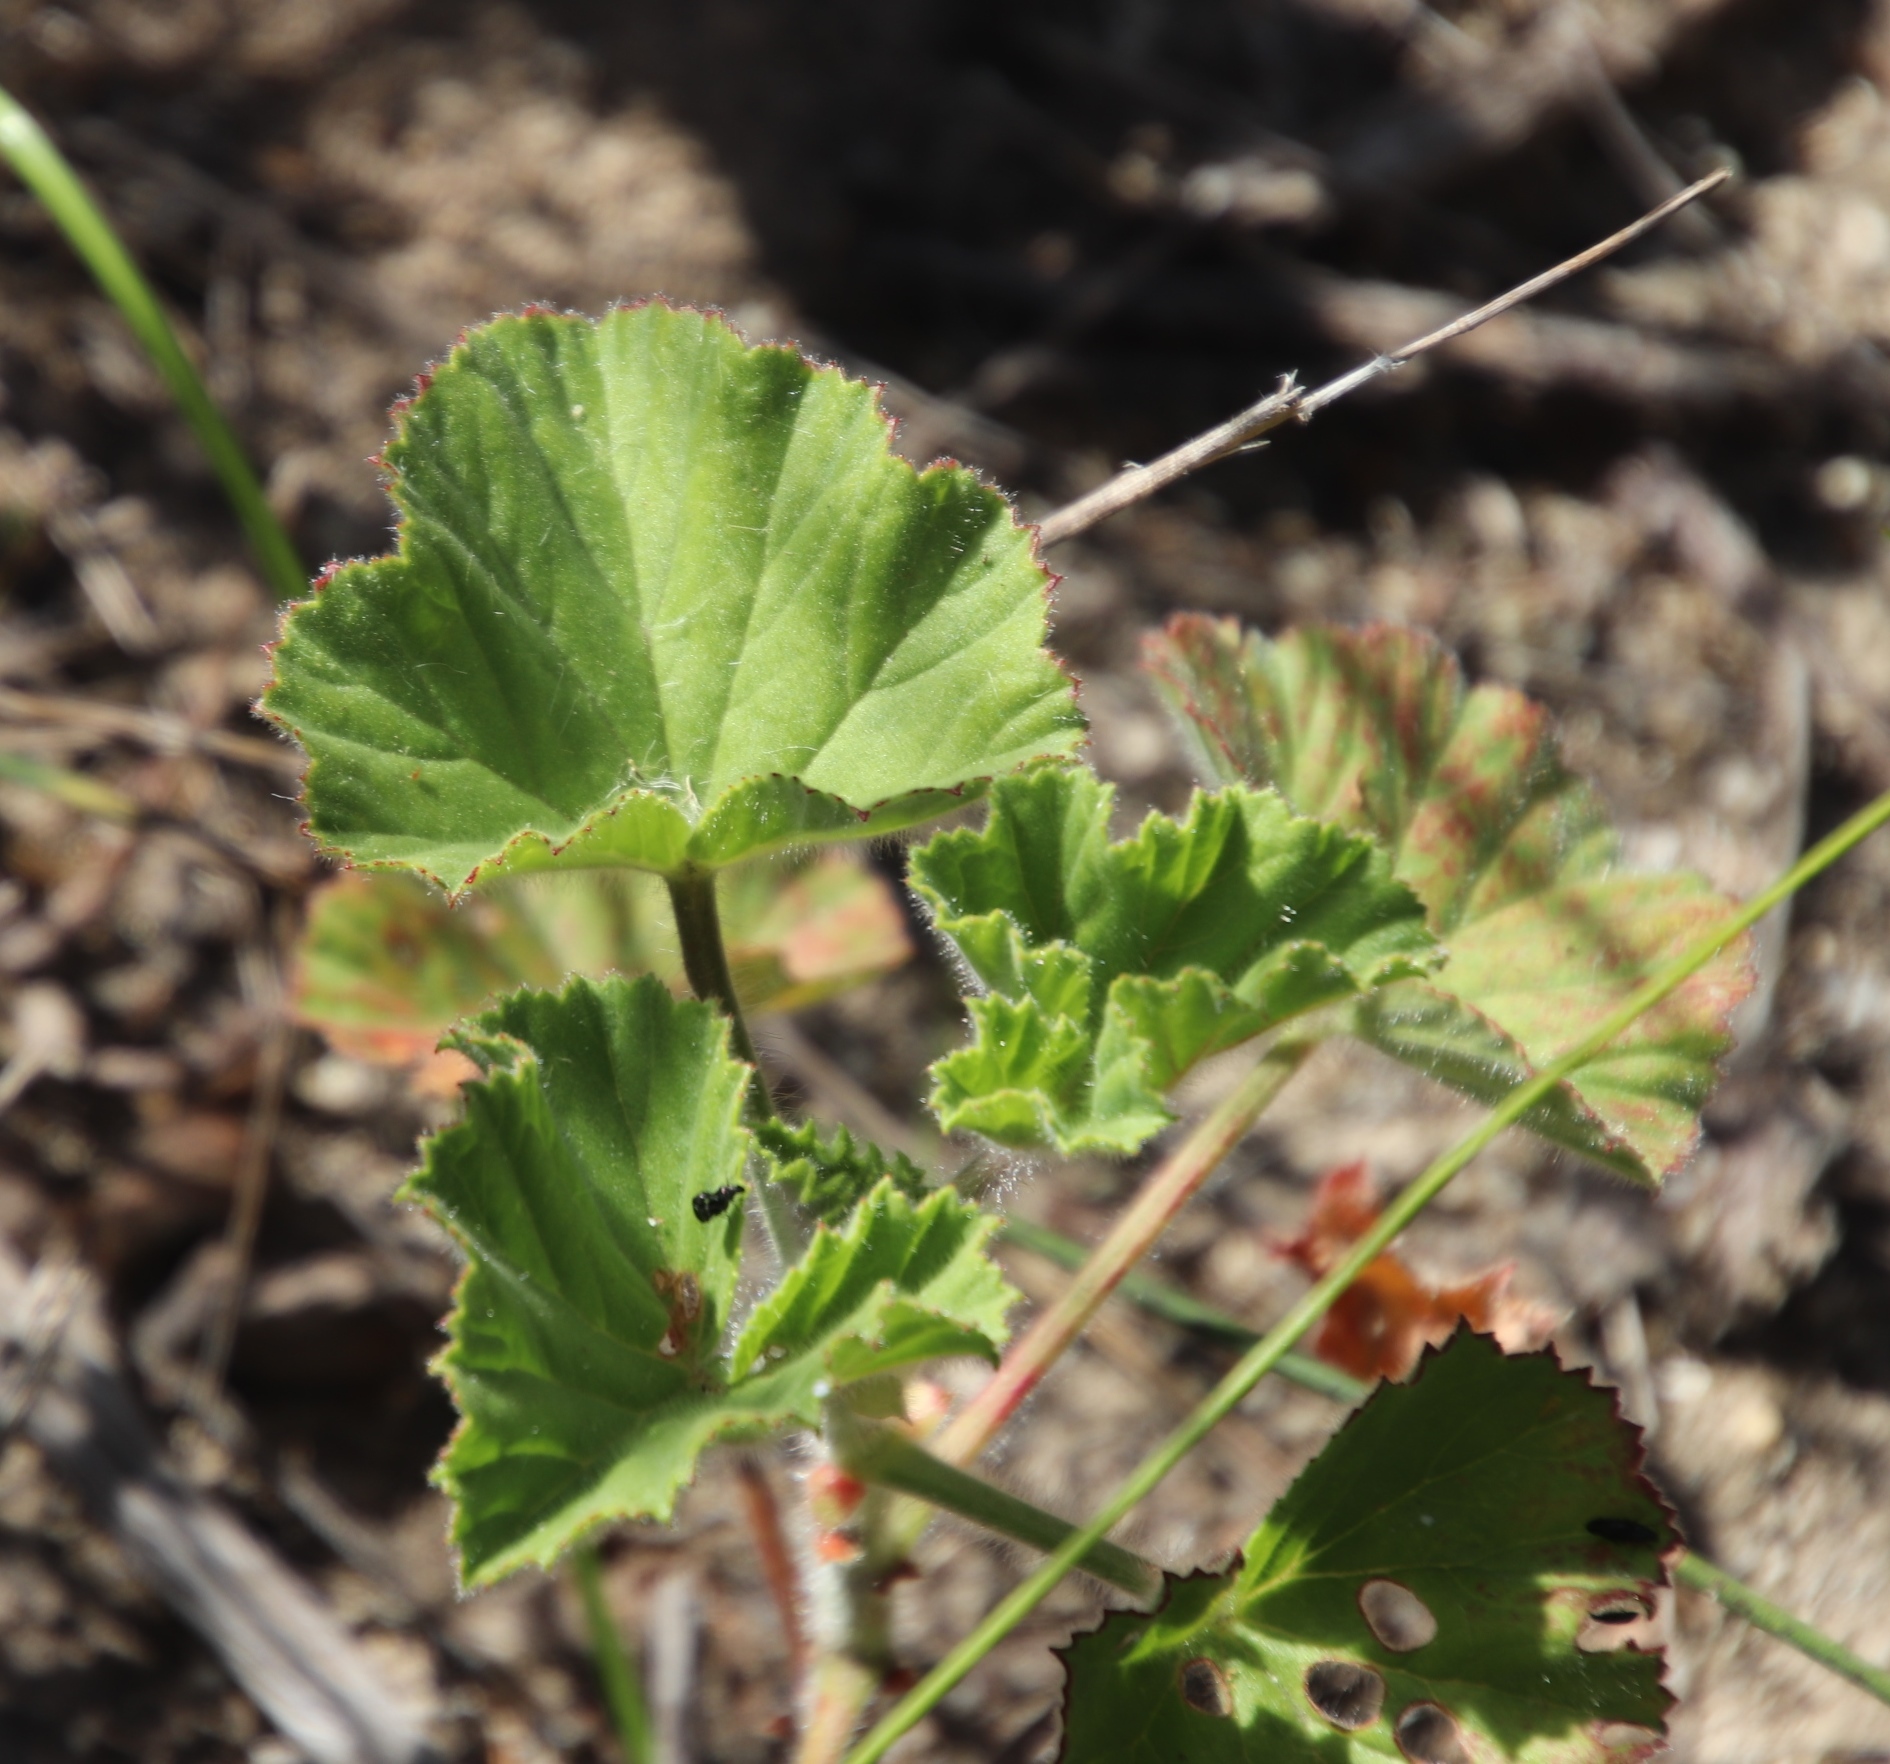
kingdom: Plantae
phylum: Tracheophyta
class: Magnoliopsida
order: Geraniales
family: Geraniaceae
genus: Pelargonium
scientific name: Pelargonium cucullatum
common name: Tree pelargonium
